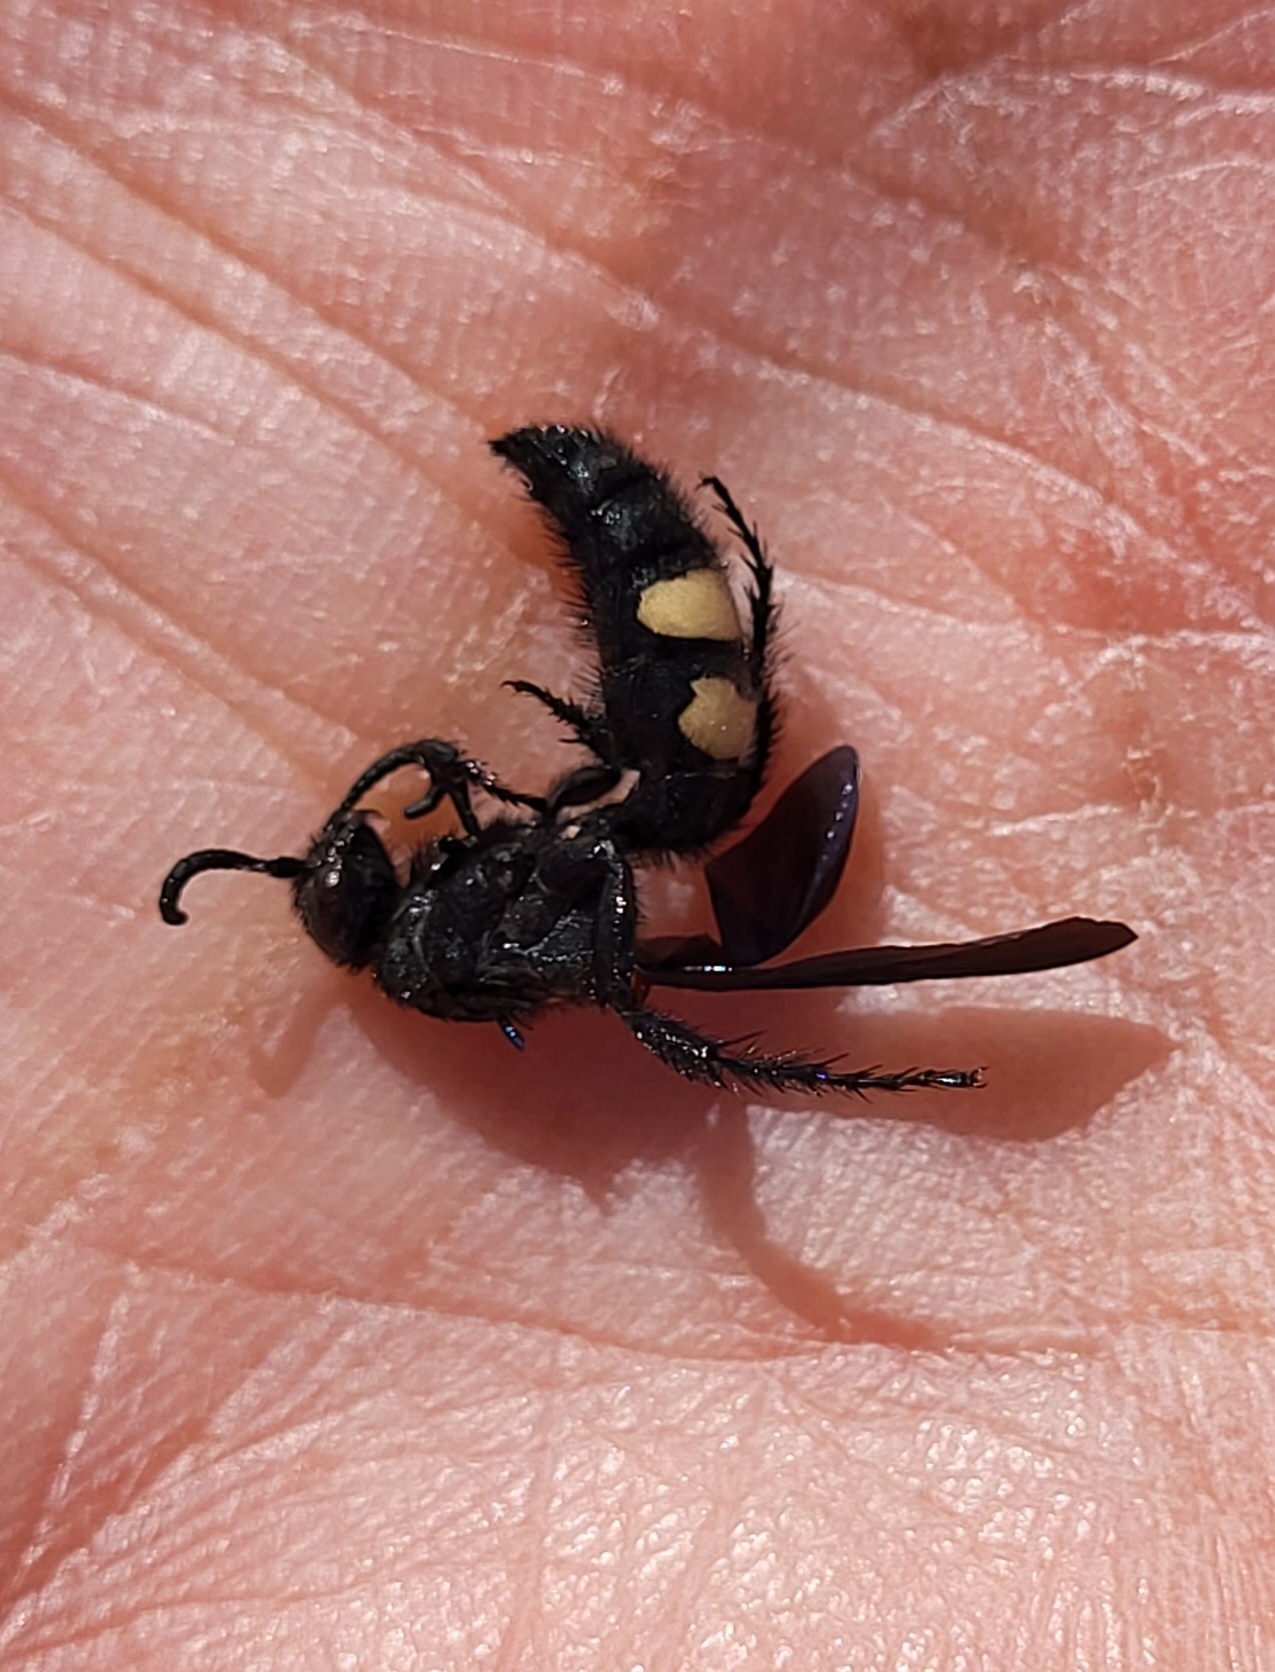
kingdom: Animalia
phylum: Arthropoda
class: Insecta
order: Hymenoptera
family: Scoliidae
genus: Scolia
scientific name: Scolia bicincta
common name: Double-banded scoliid wasp
